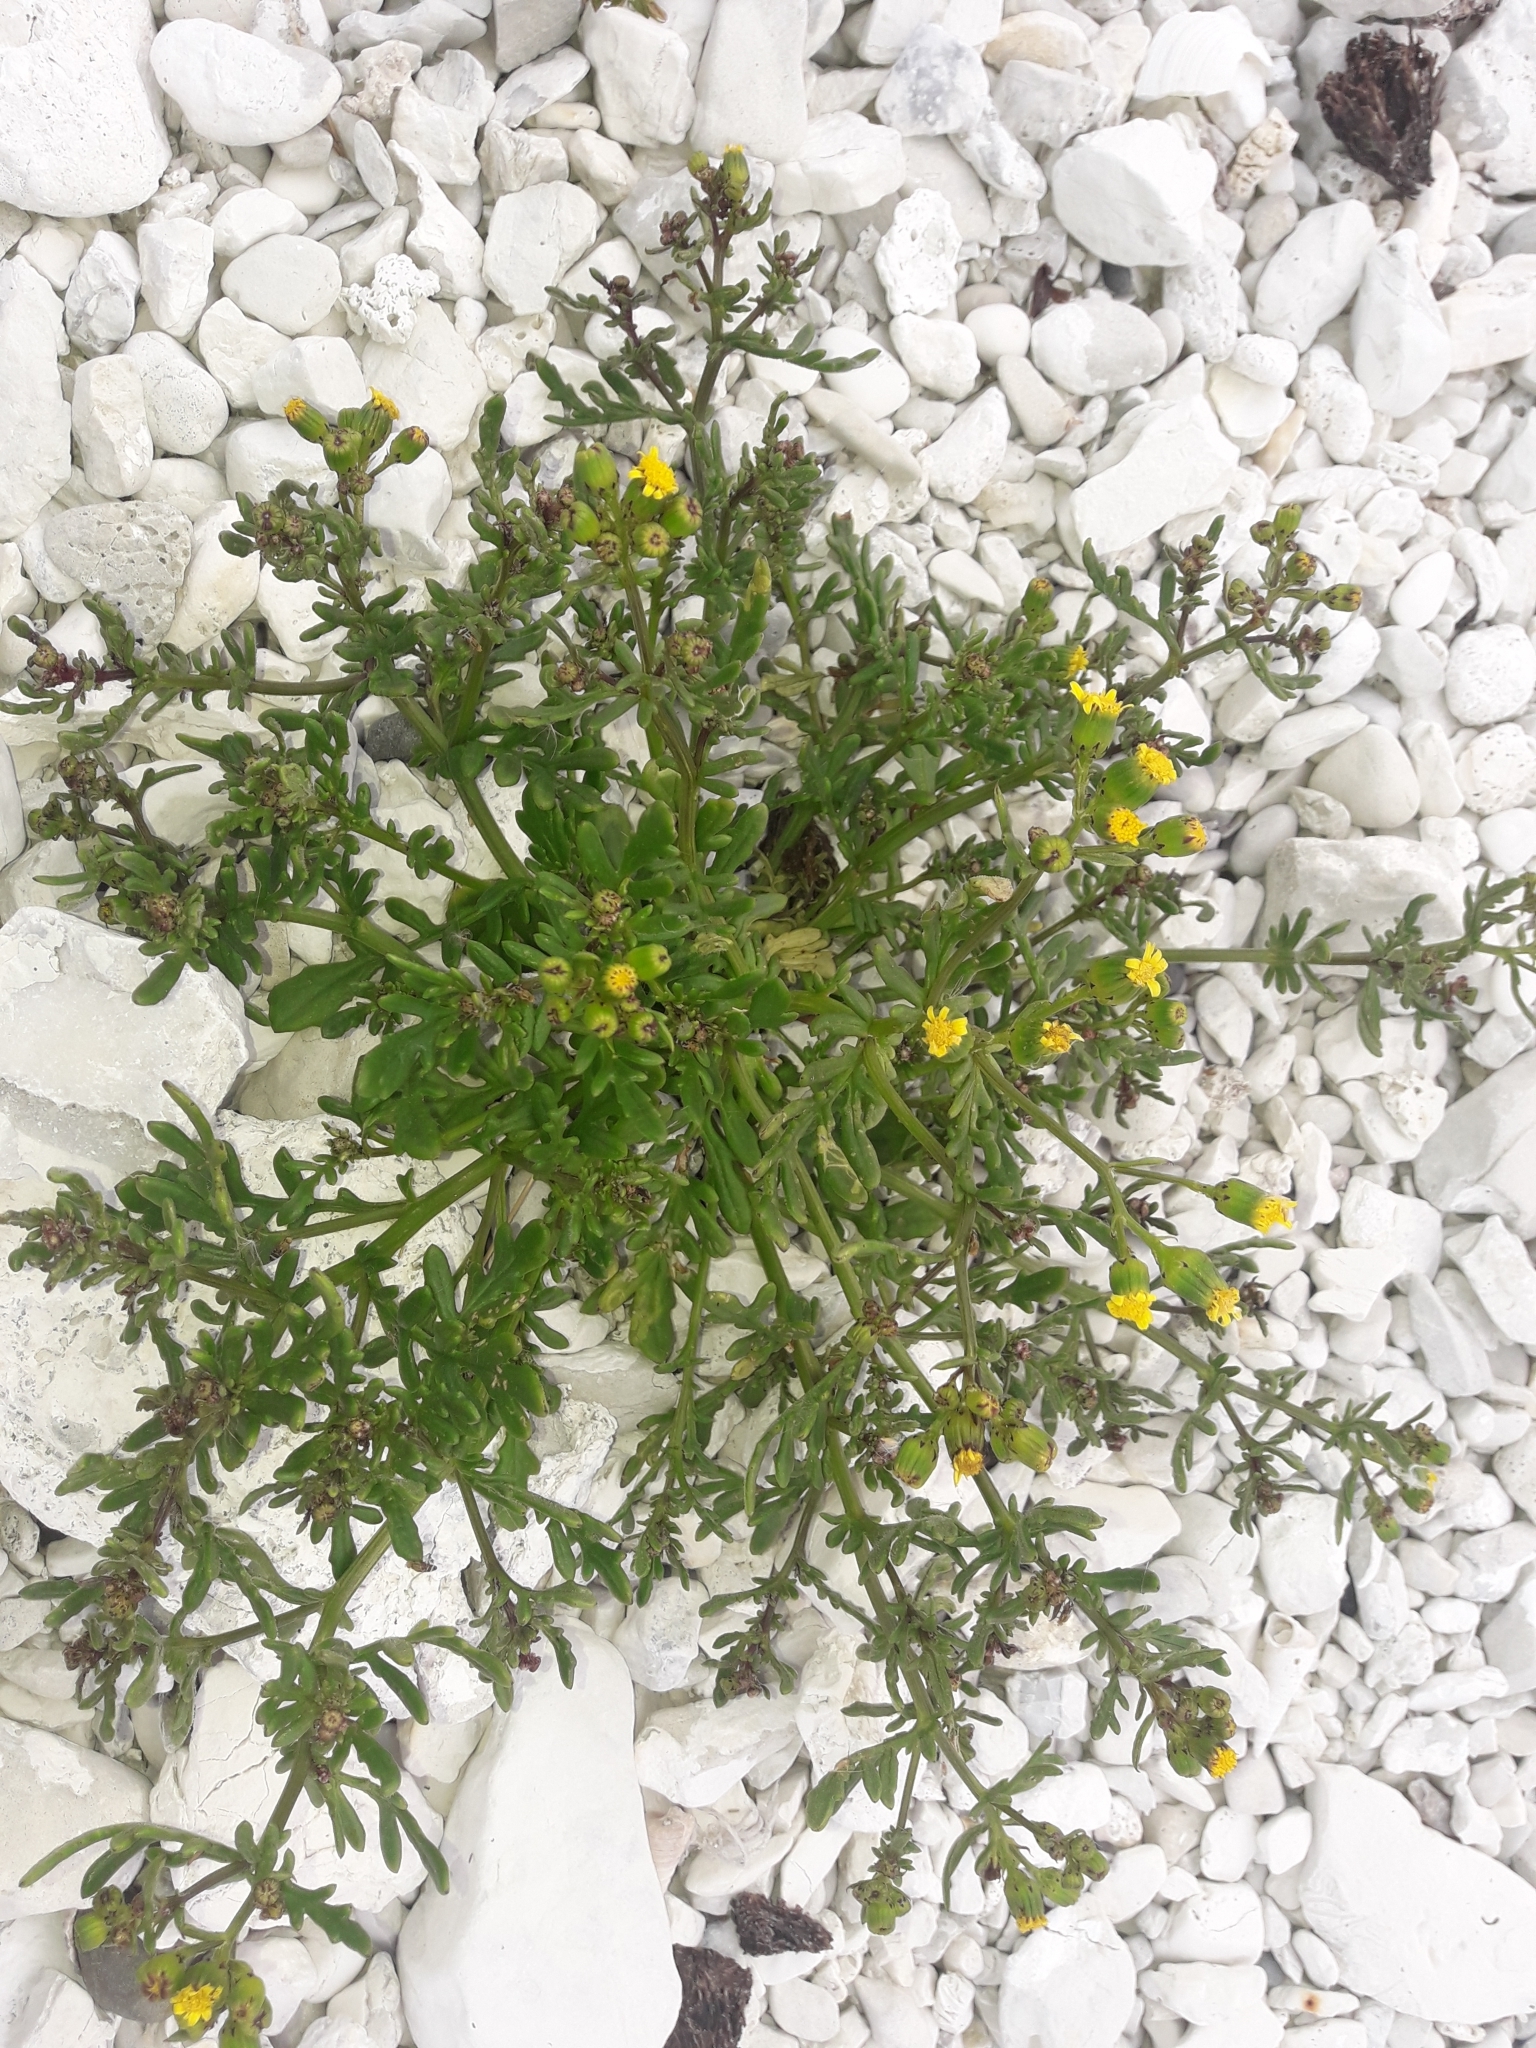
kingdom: Plantae
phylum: Tracheophyta
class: Magnoliopsida
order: Asterales
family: Asteraceae
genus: Senecio
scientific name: Senecio lautus
